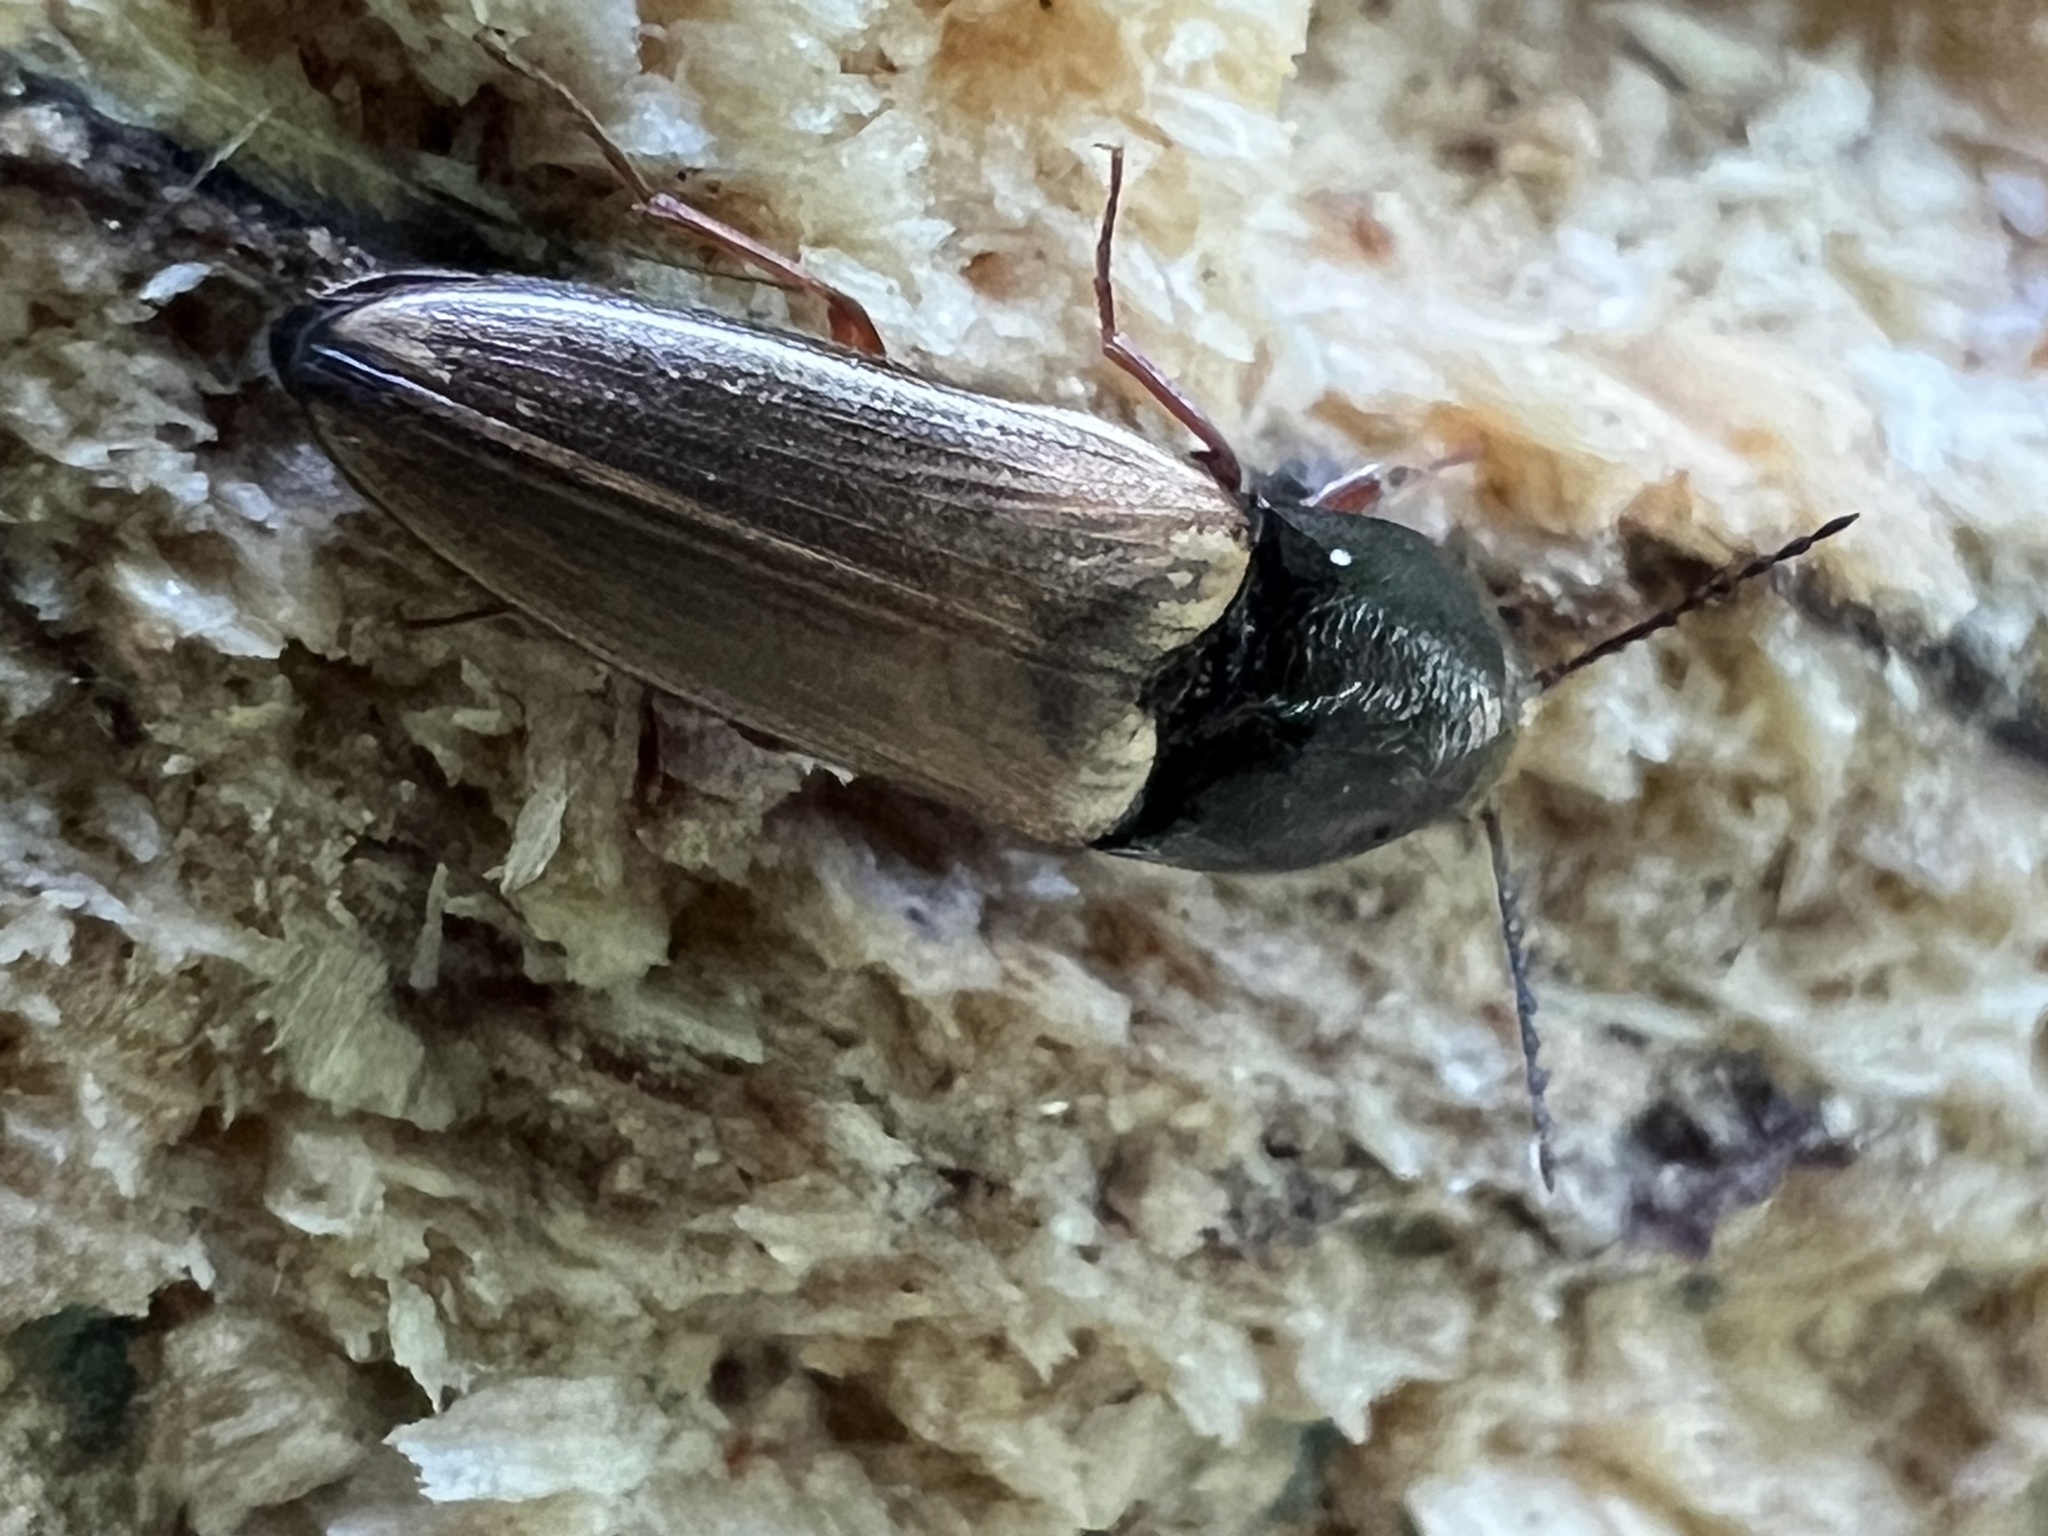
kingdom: Animalia
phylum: Arthropoda
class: Insecta
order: Coleoptera
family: Elateridae
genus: Ampedus
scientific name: Ampedus nigricollis
